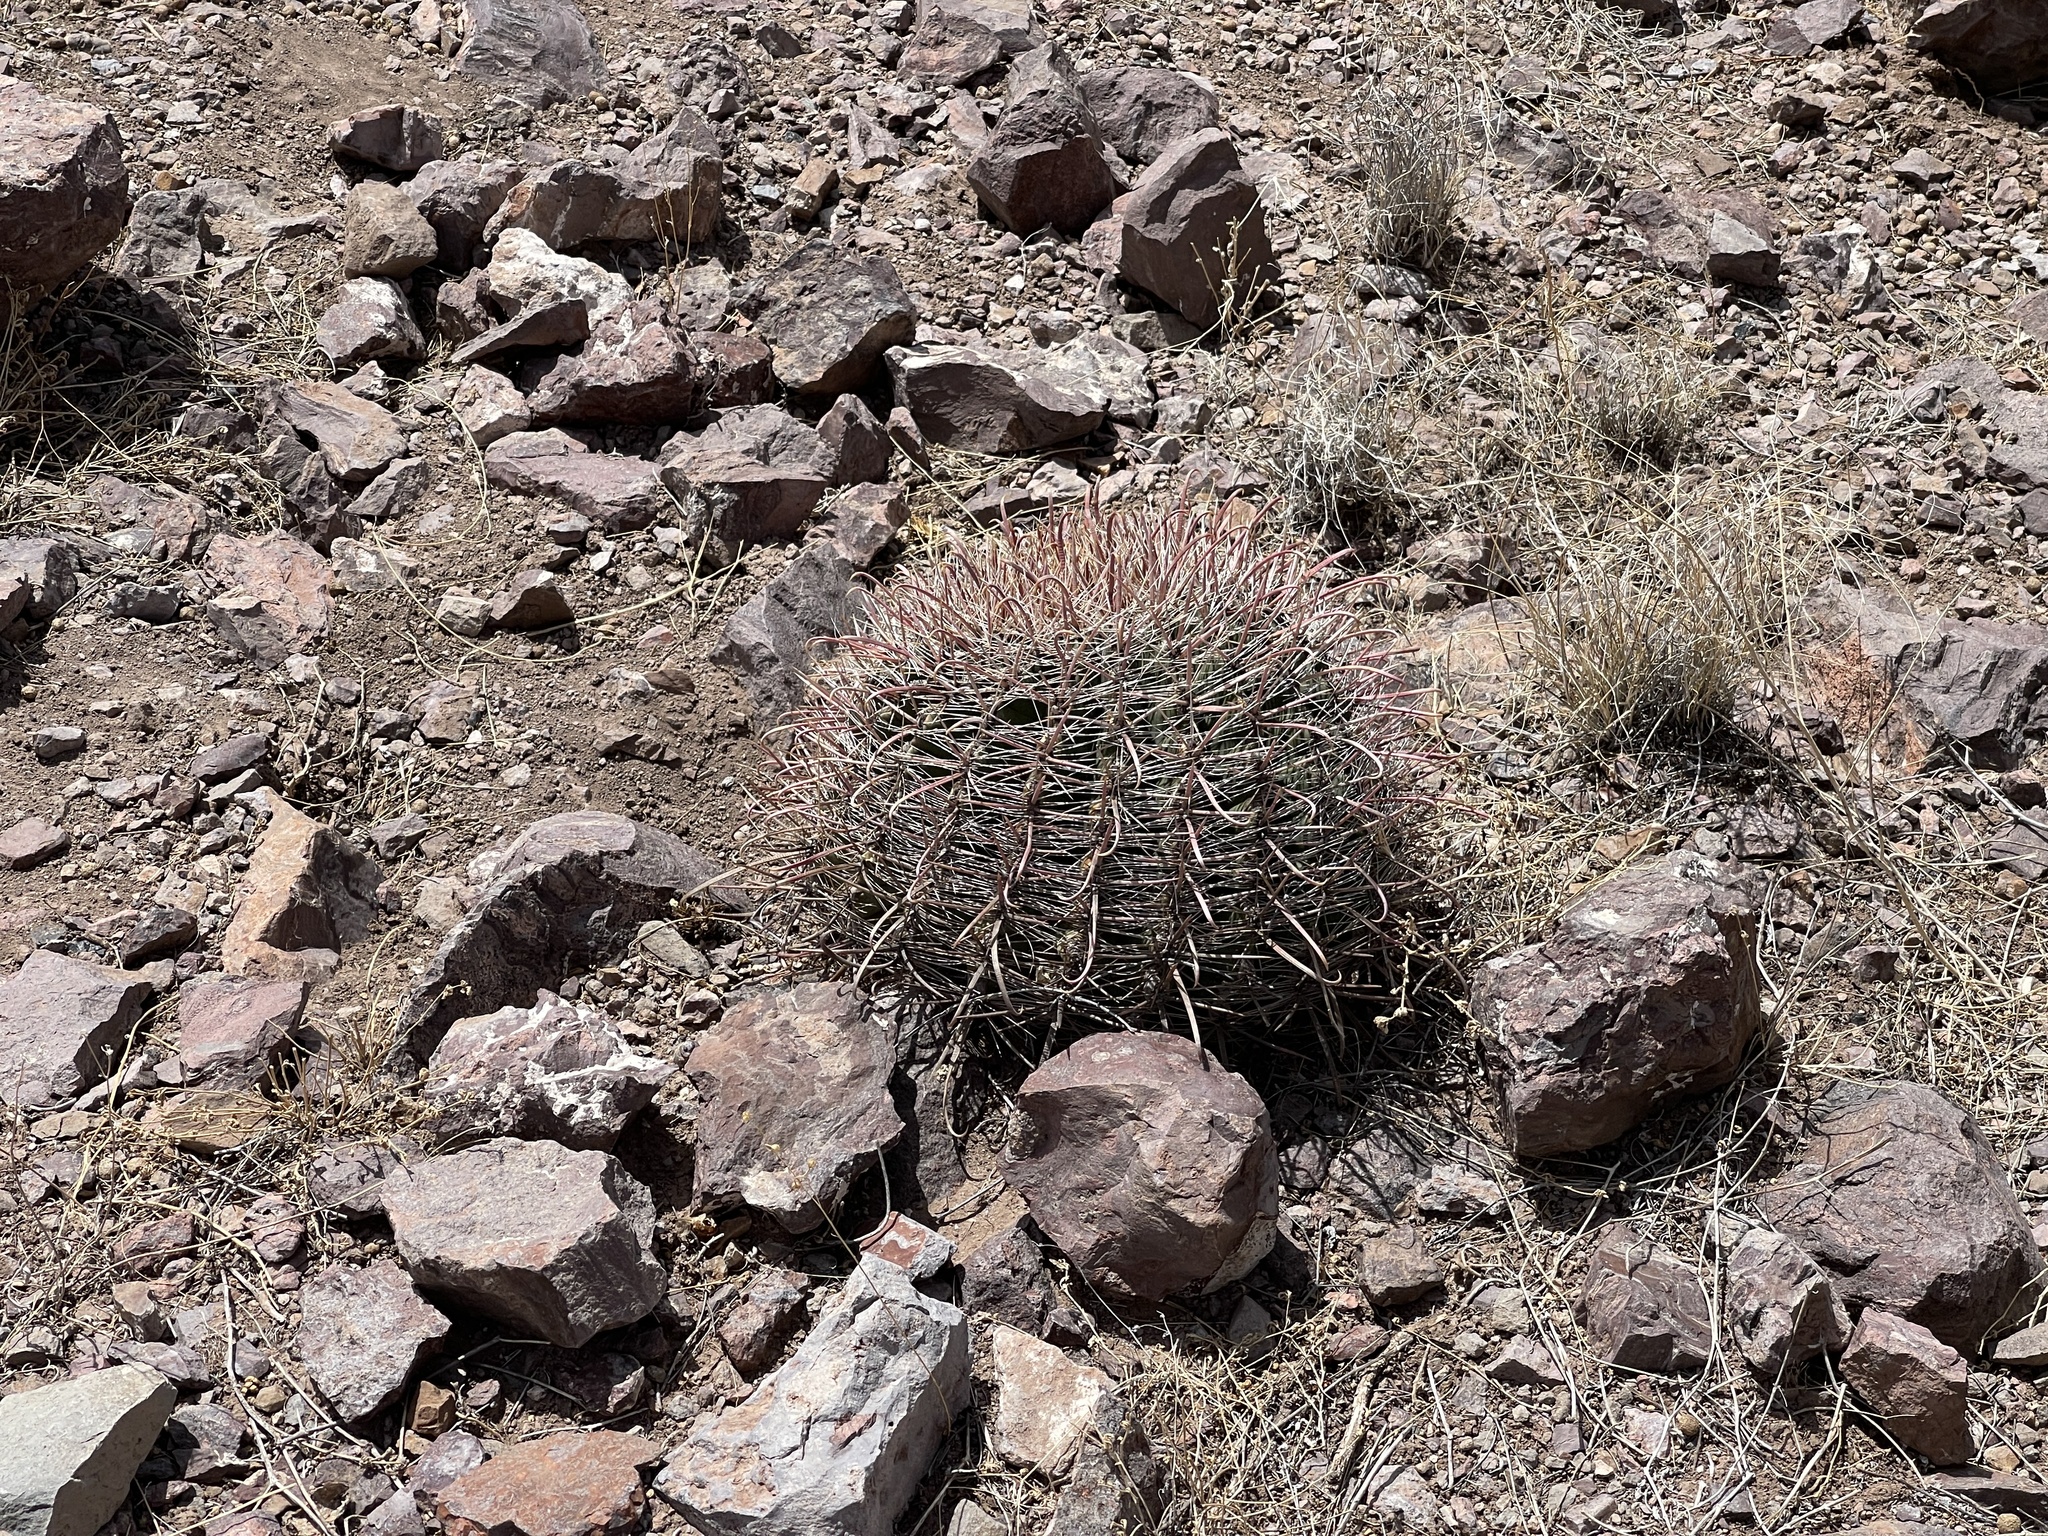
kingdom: Plantae
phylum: Tracheophyta
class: Magnoliopsida
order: Caryophyllales
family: Cactaceae
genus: Ferocactus
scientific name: Ferocactus wislizeni
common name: Candy barrel cactus
